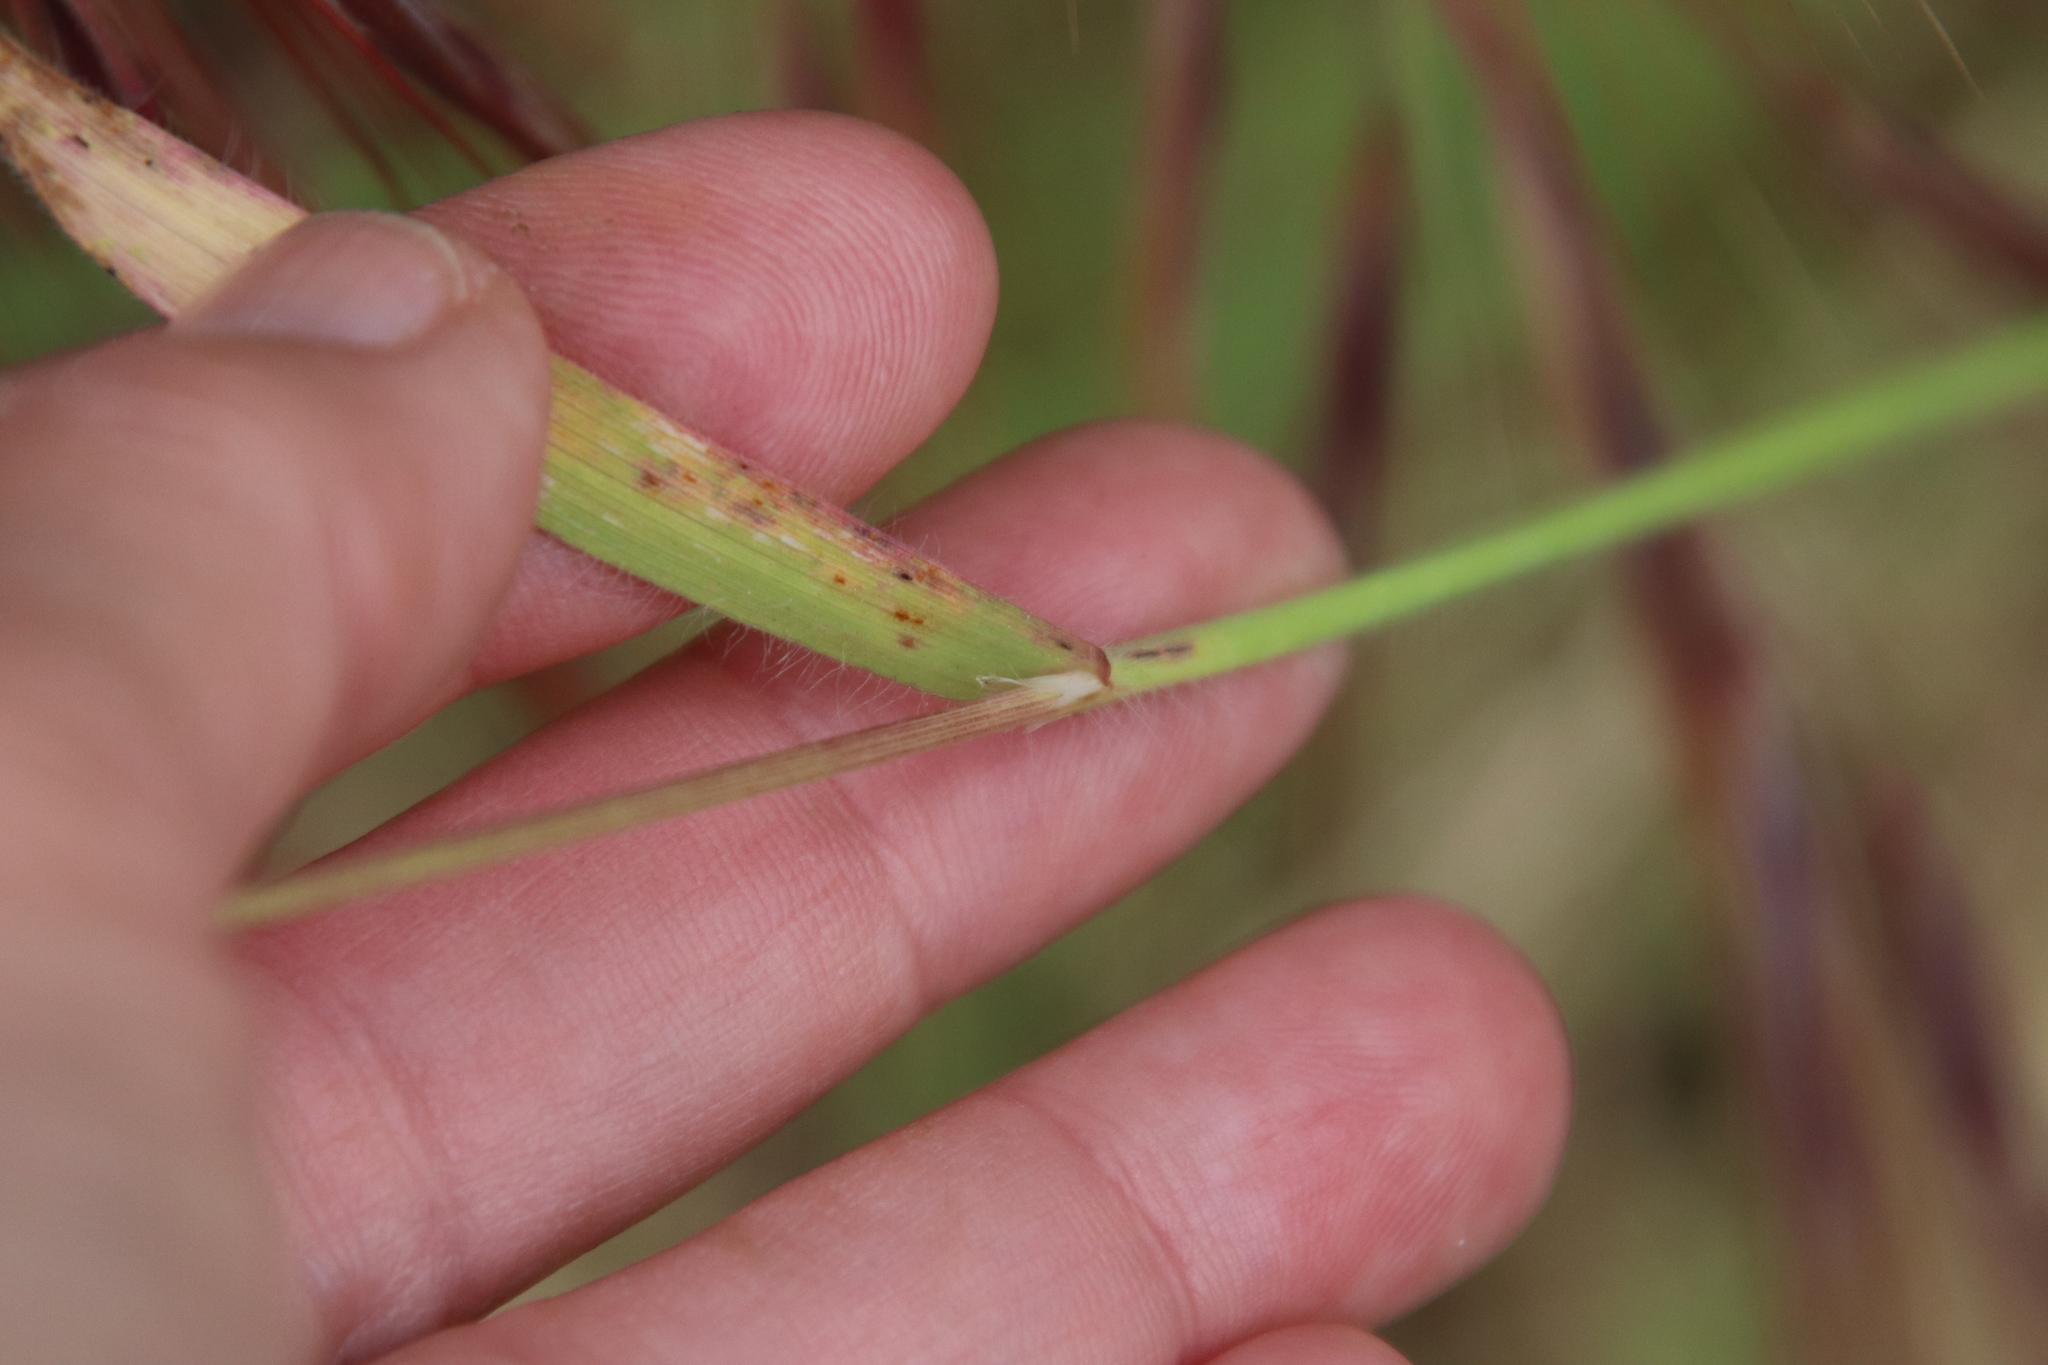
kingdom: Plantae
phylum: Tracheophyta
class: Liliopsida
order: Poales
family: Poaceae
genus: Bromus
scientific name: Bromus diandrus
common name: Ripgut brome
